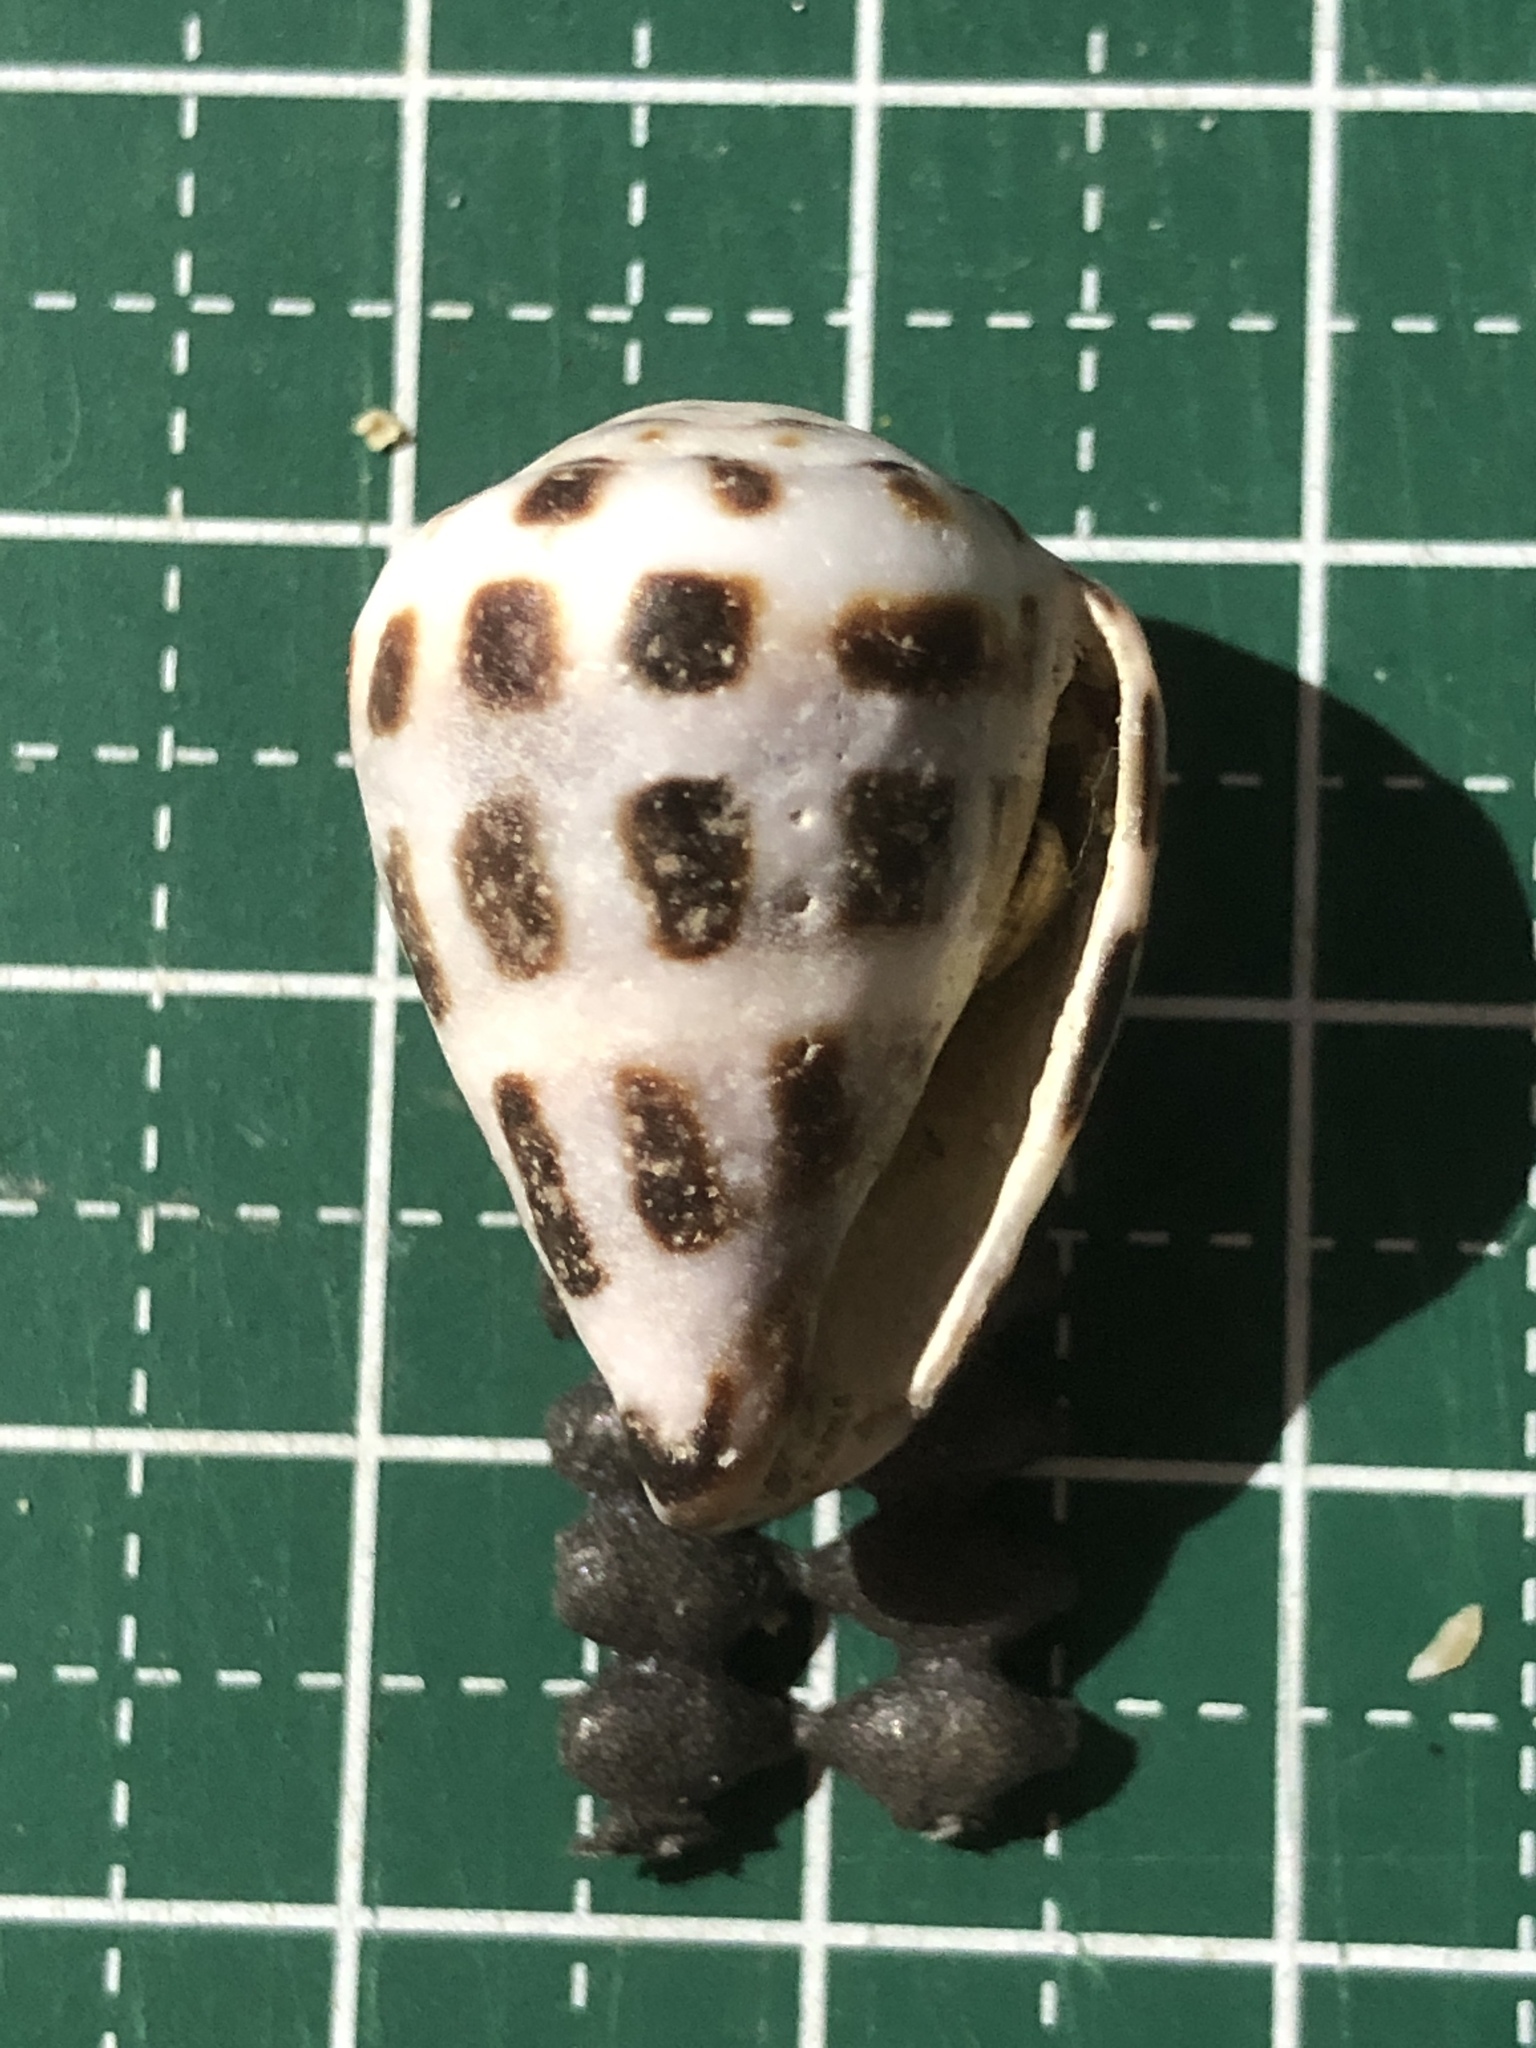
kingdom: Animalia
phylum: Mollusca
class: Gastropoda
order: Neogastropoda
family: Conidae
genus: Conus
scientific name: Conus ebraeus
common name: Hebrew cone
